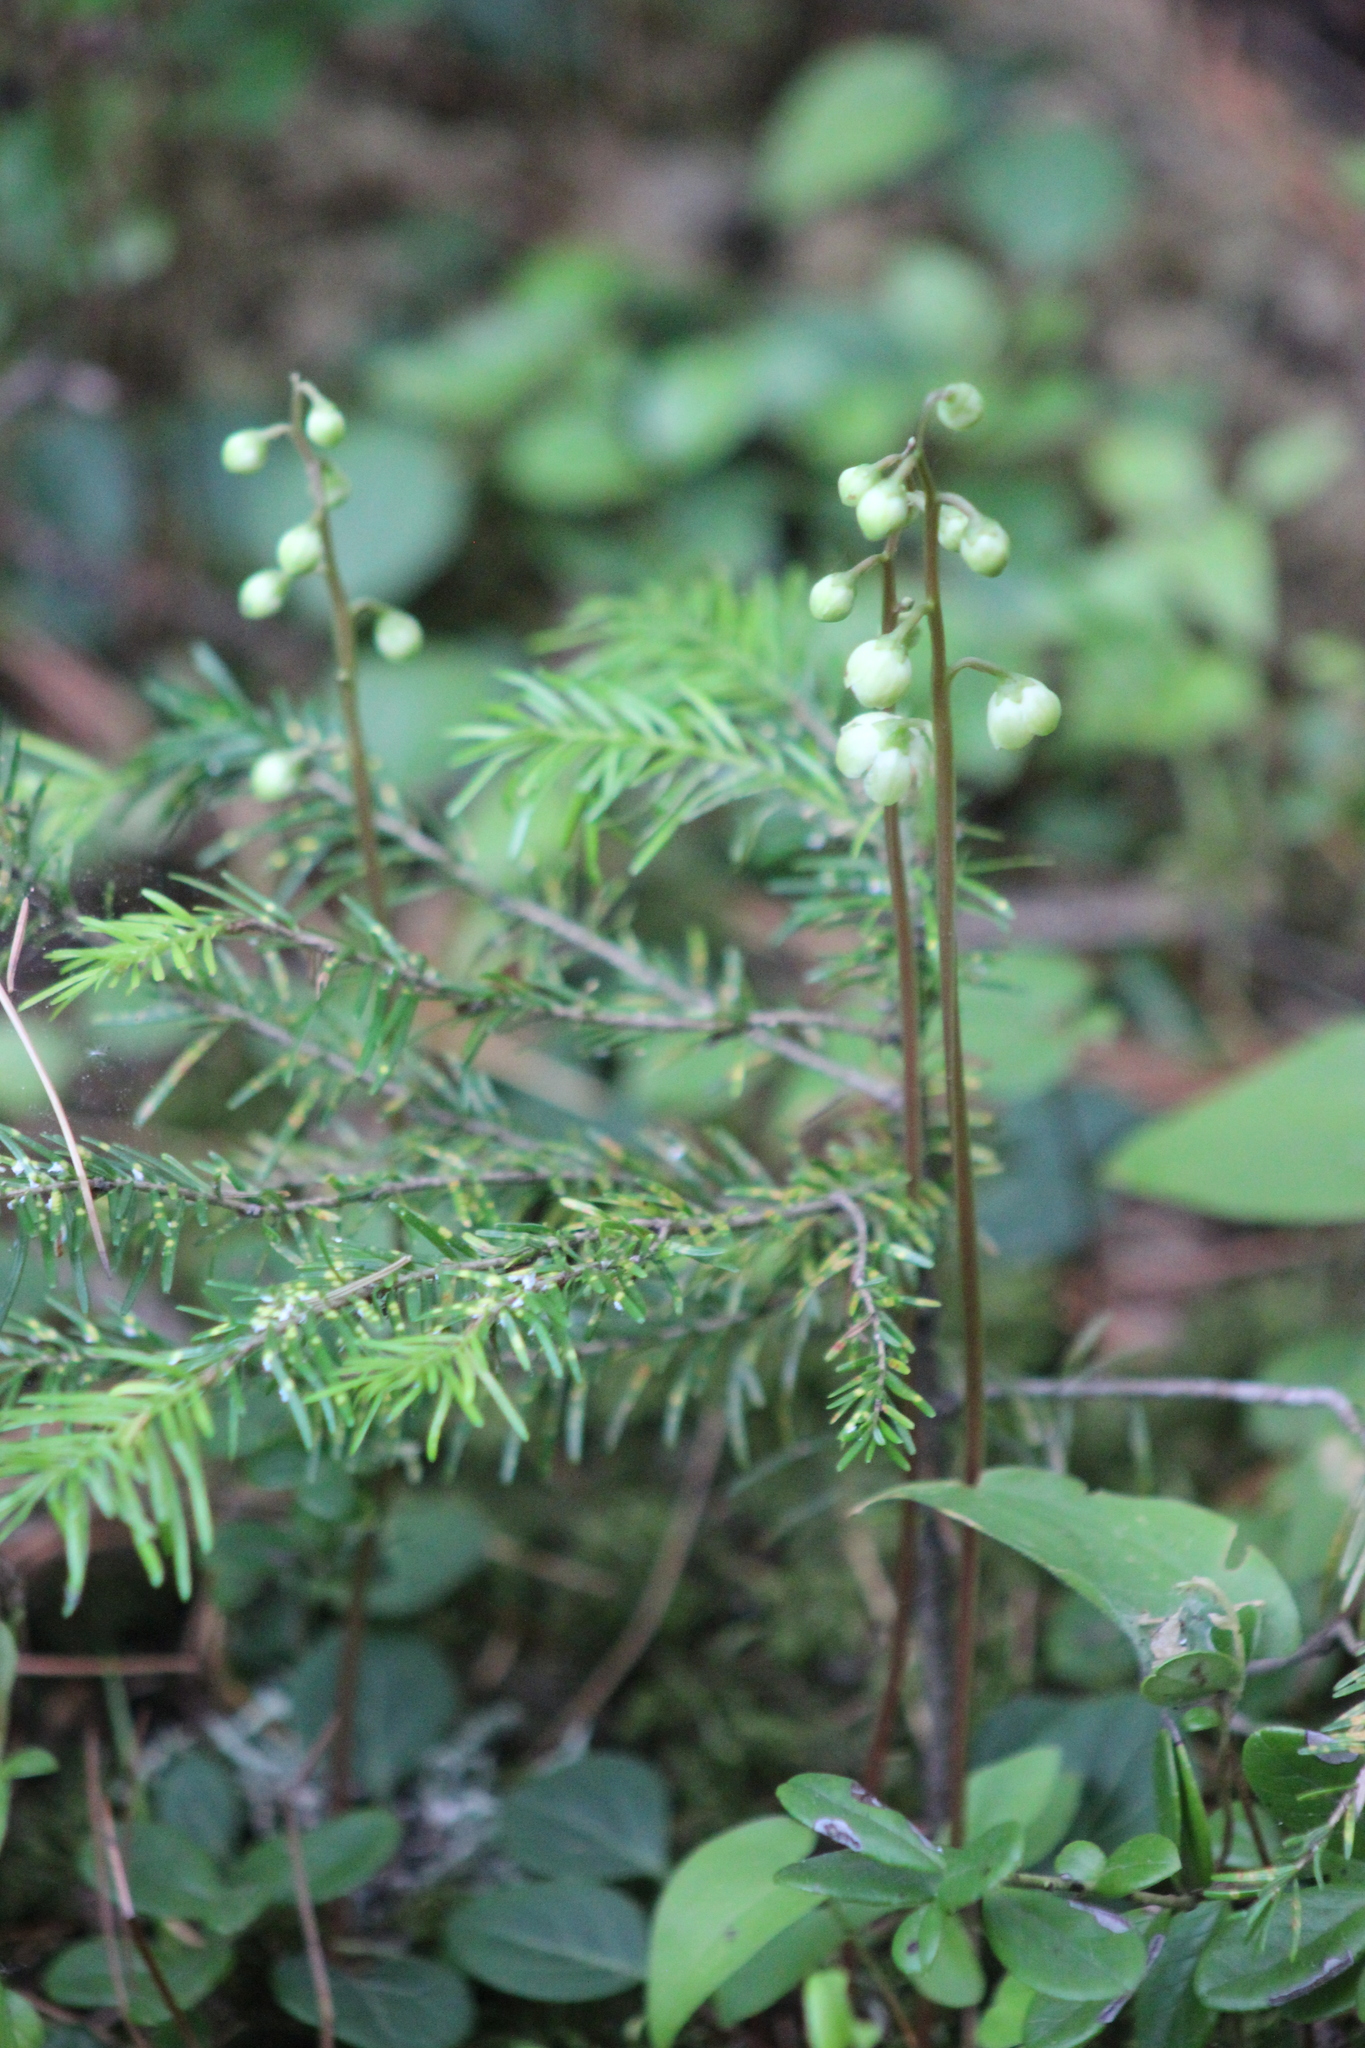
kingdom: Plantae
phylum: Tracheophyta
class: Magnoliopsida
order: Ericales
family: Ericaceae
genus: Pyrola
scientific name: Pyrola chlorantha
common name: Green wintergreen
